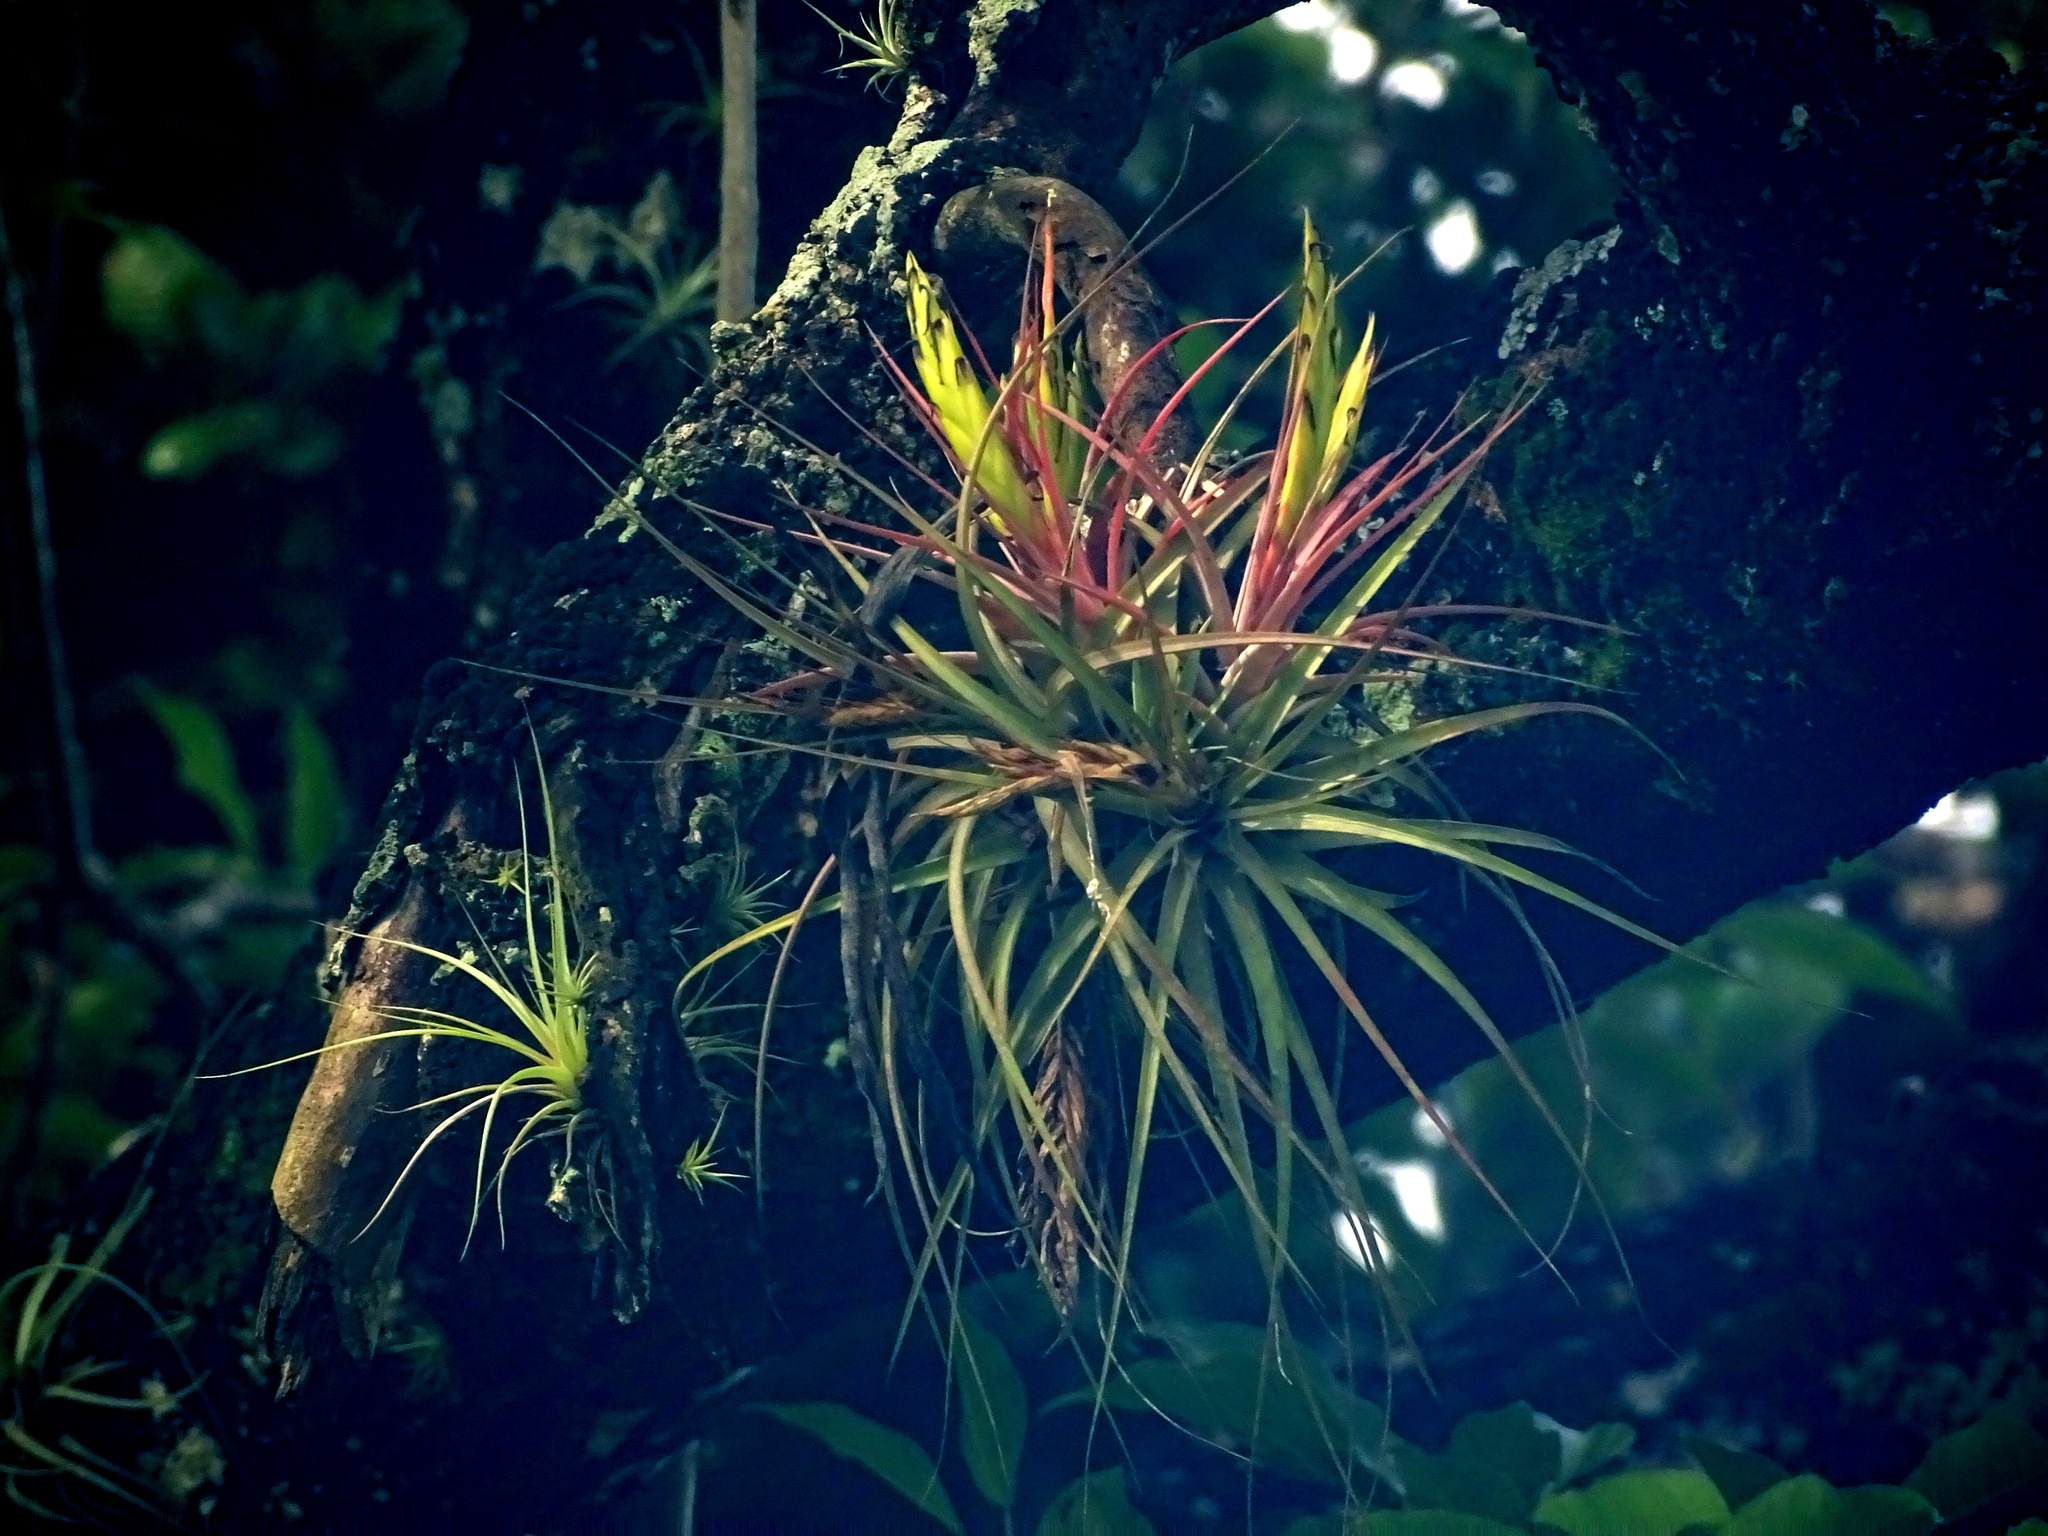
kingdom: Plantae
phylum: Tracheophyta
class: Liliopsida
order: Poales
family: Bromeliaceae
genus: Tillandsia
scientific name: Tillandsia concolor
